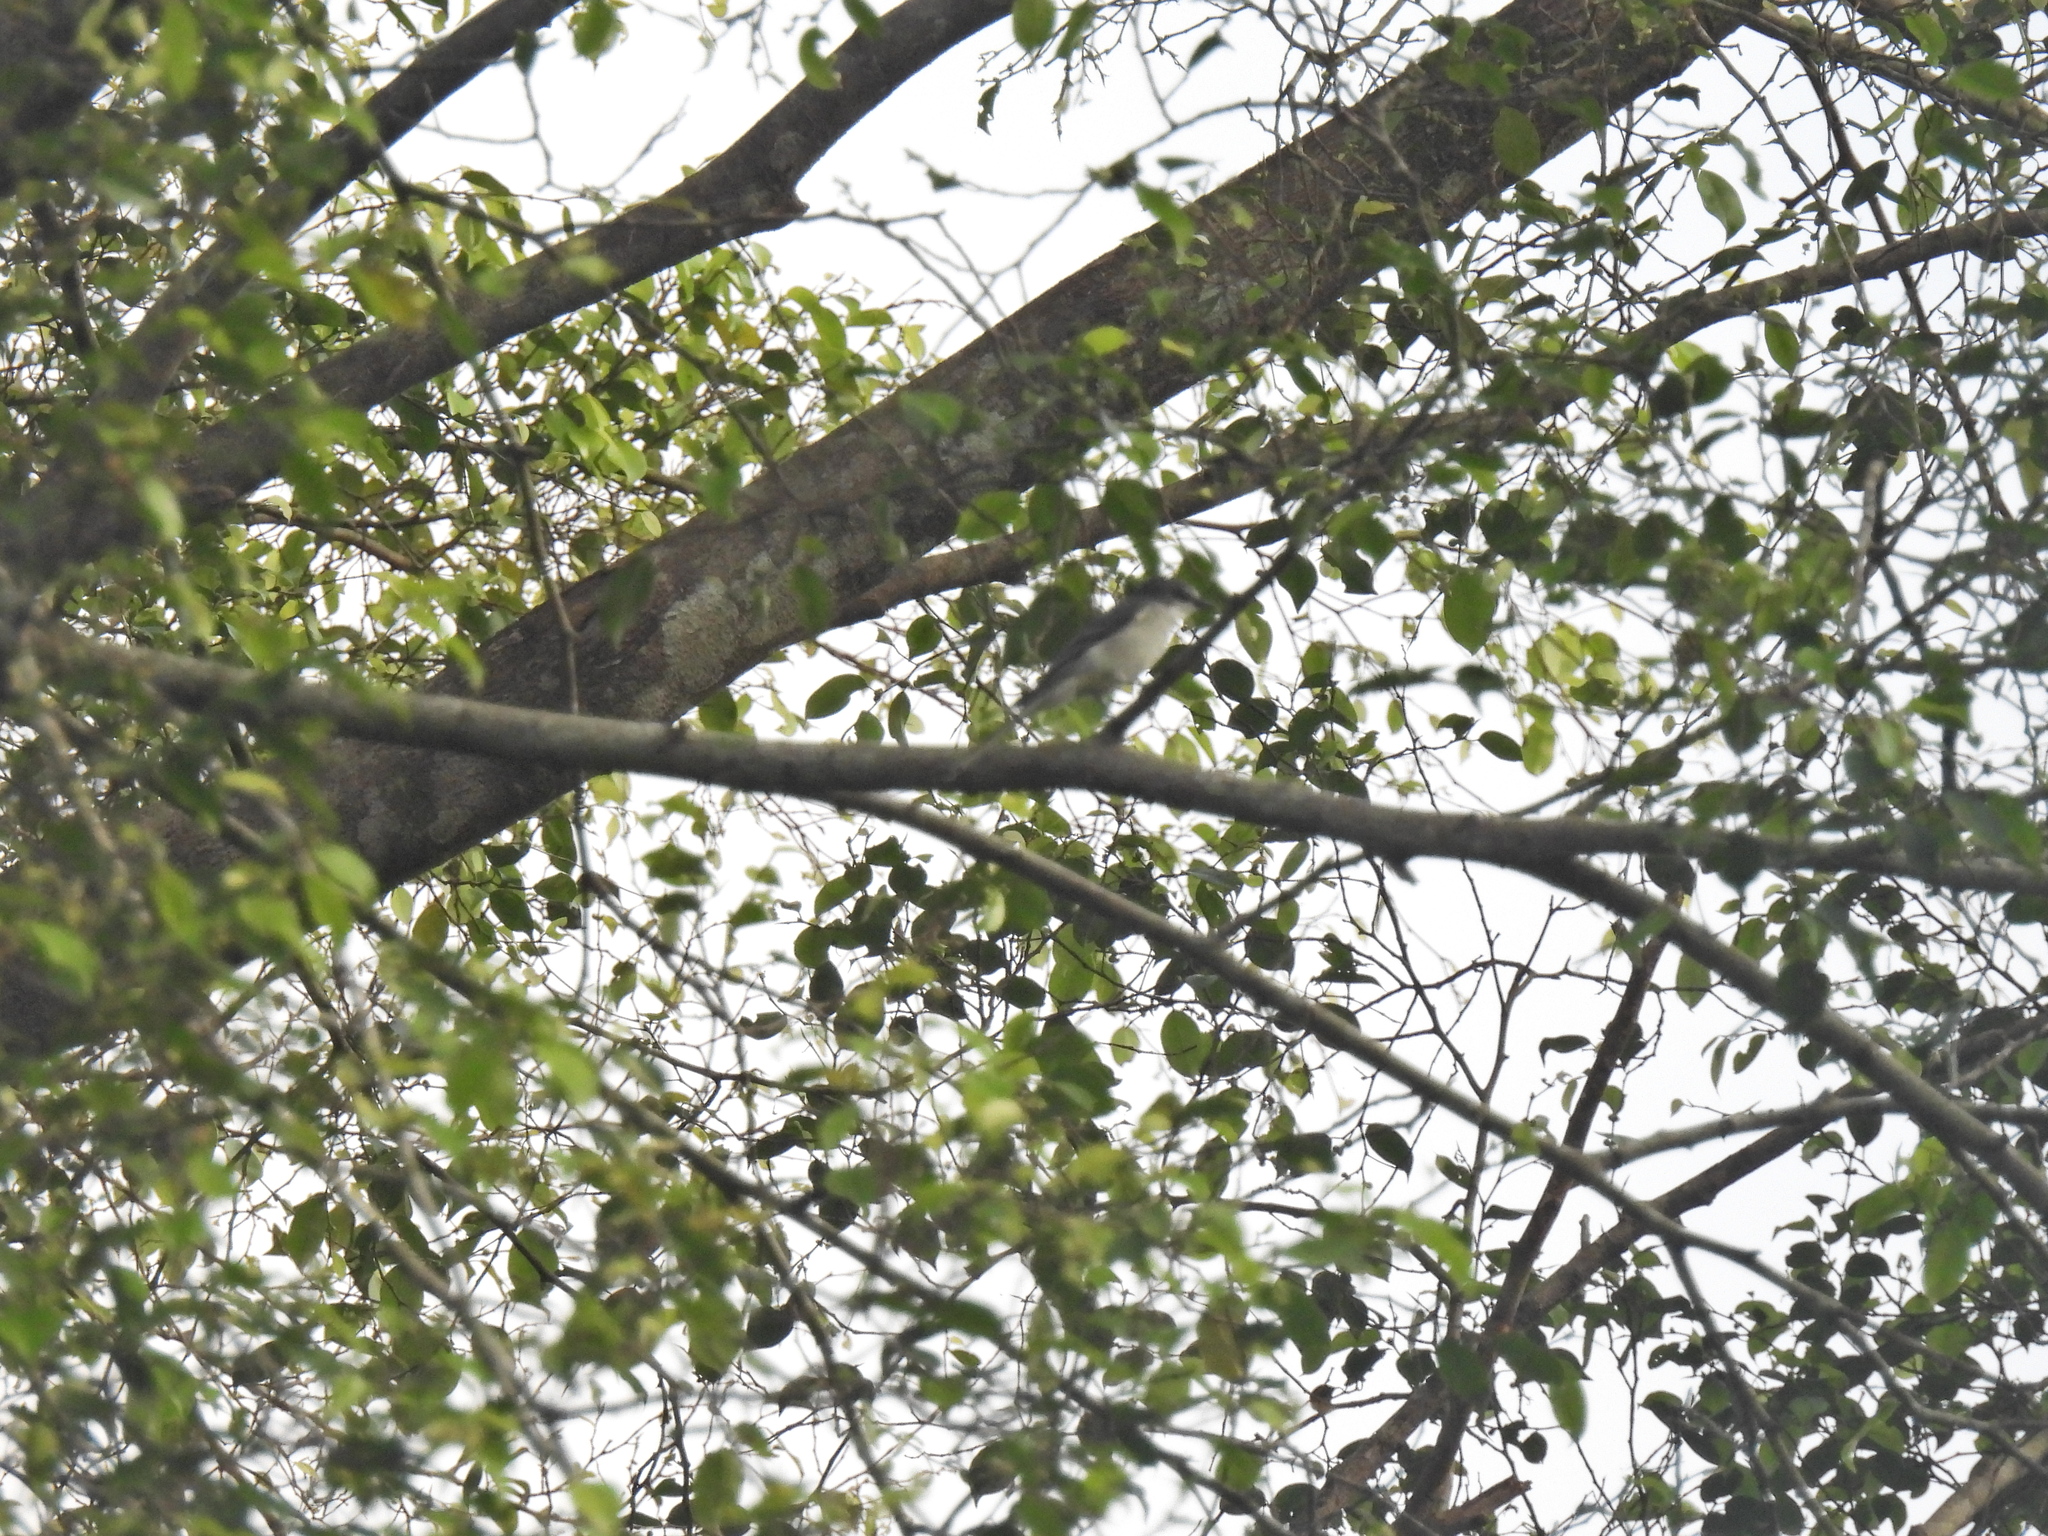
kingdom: Animalia
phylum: Chordata
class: Aves
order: Passeriformes
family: Campephagidae
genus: Pericrocotus
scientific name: Pericrocotus divaricatus
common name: Ashy minivet
